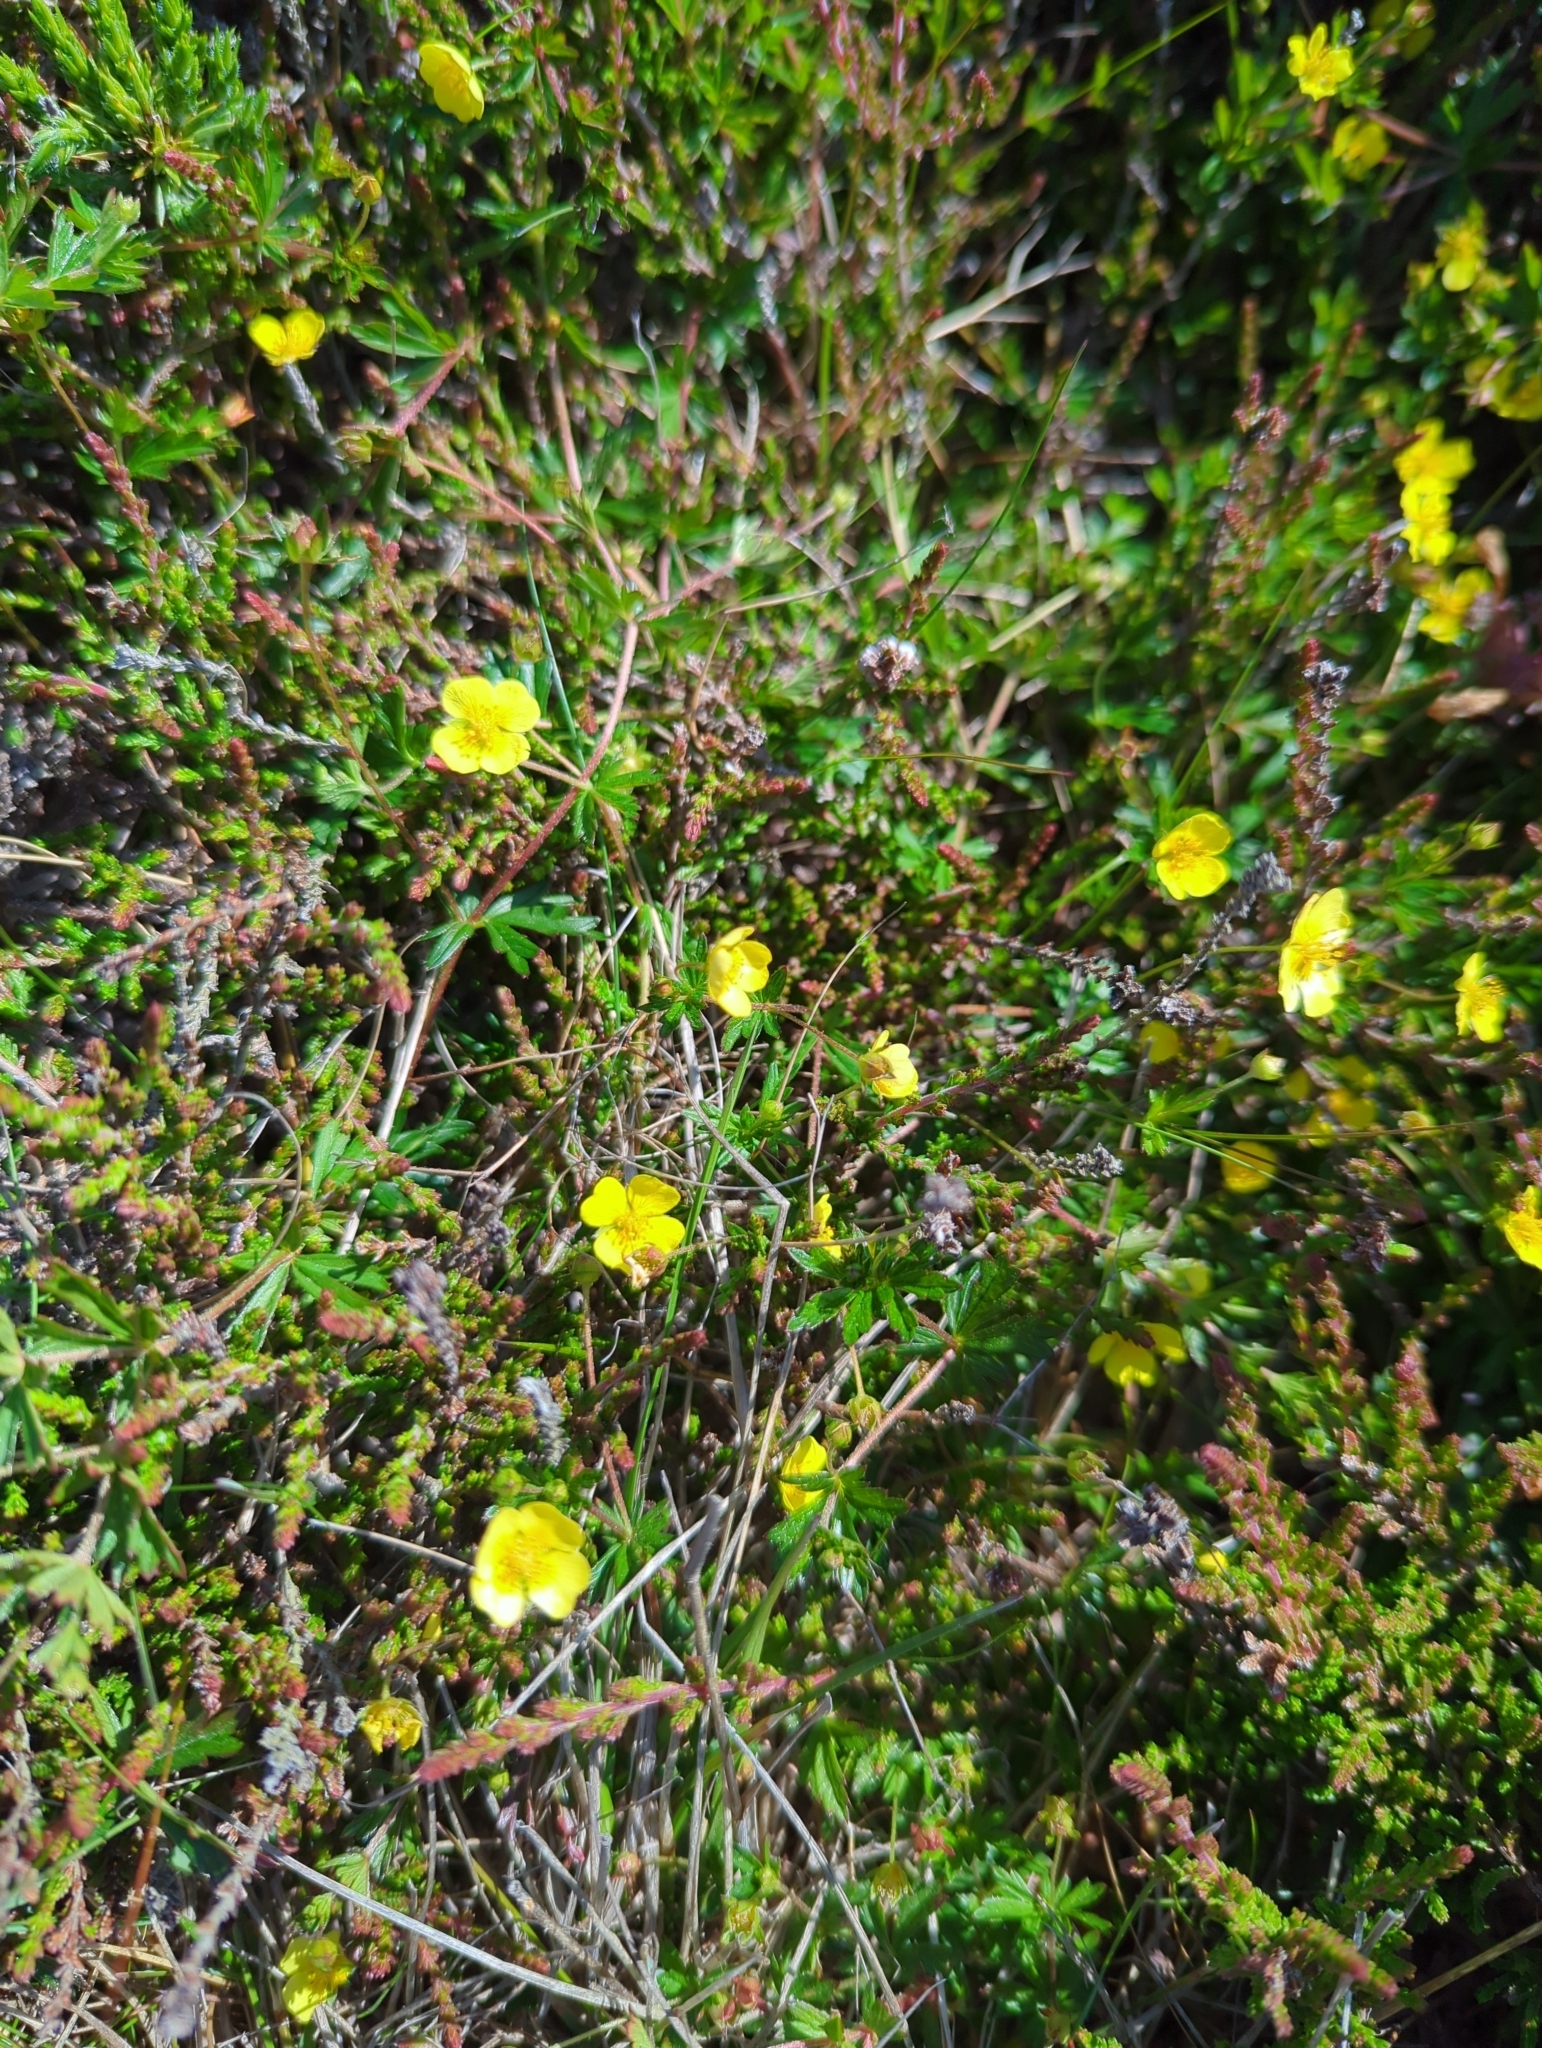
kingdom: Plantae
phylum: Tracheophyta
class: Magnoliopsida
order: Rosales
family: Rosaceae
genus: Potentilla
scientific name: Potentilla erecta
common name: Tormentil
